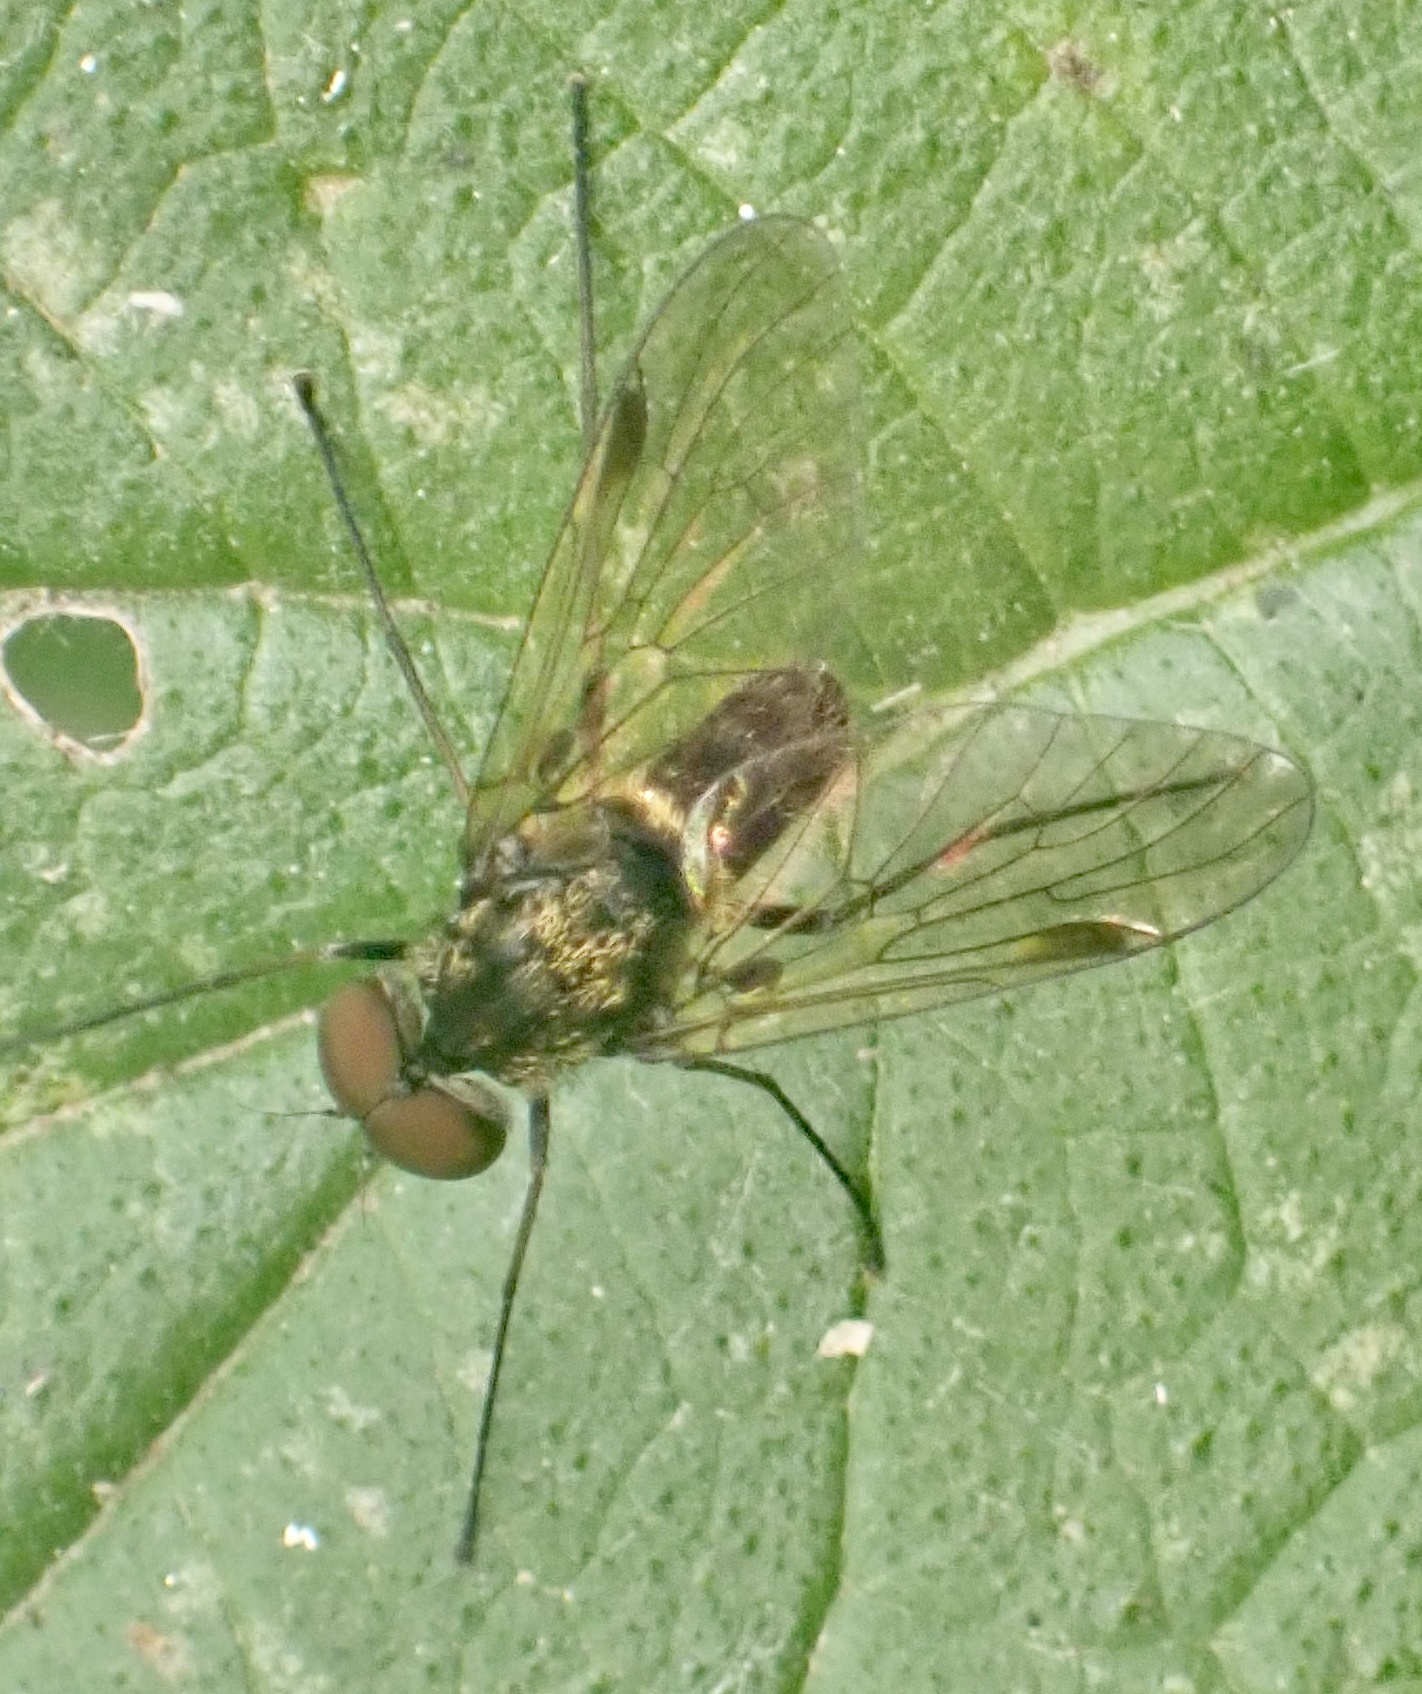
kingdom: Animalia
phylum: Arthropoda
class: Insecta
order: Diptera
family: Rhagionidae
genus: Chrysopilus
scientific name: Chrysopilus cristatus
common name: Black snipefly
